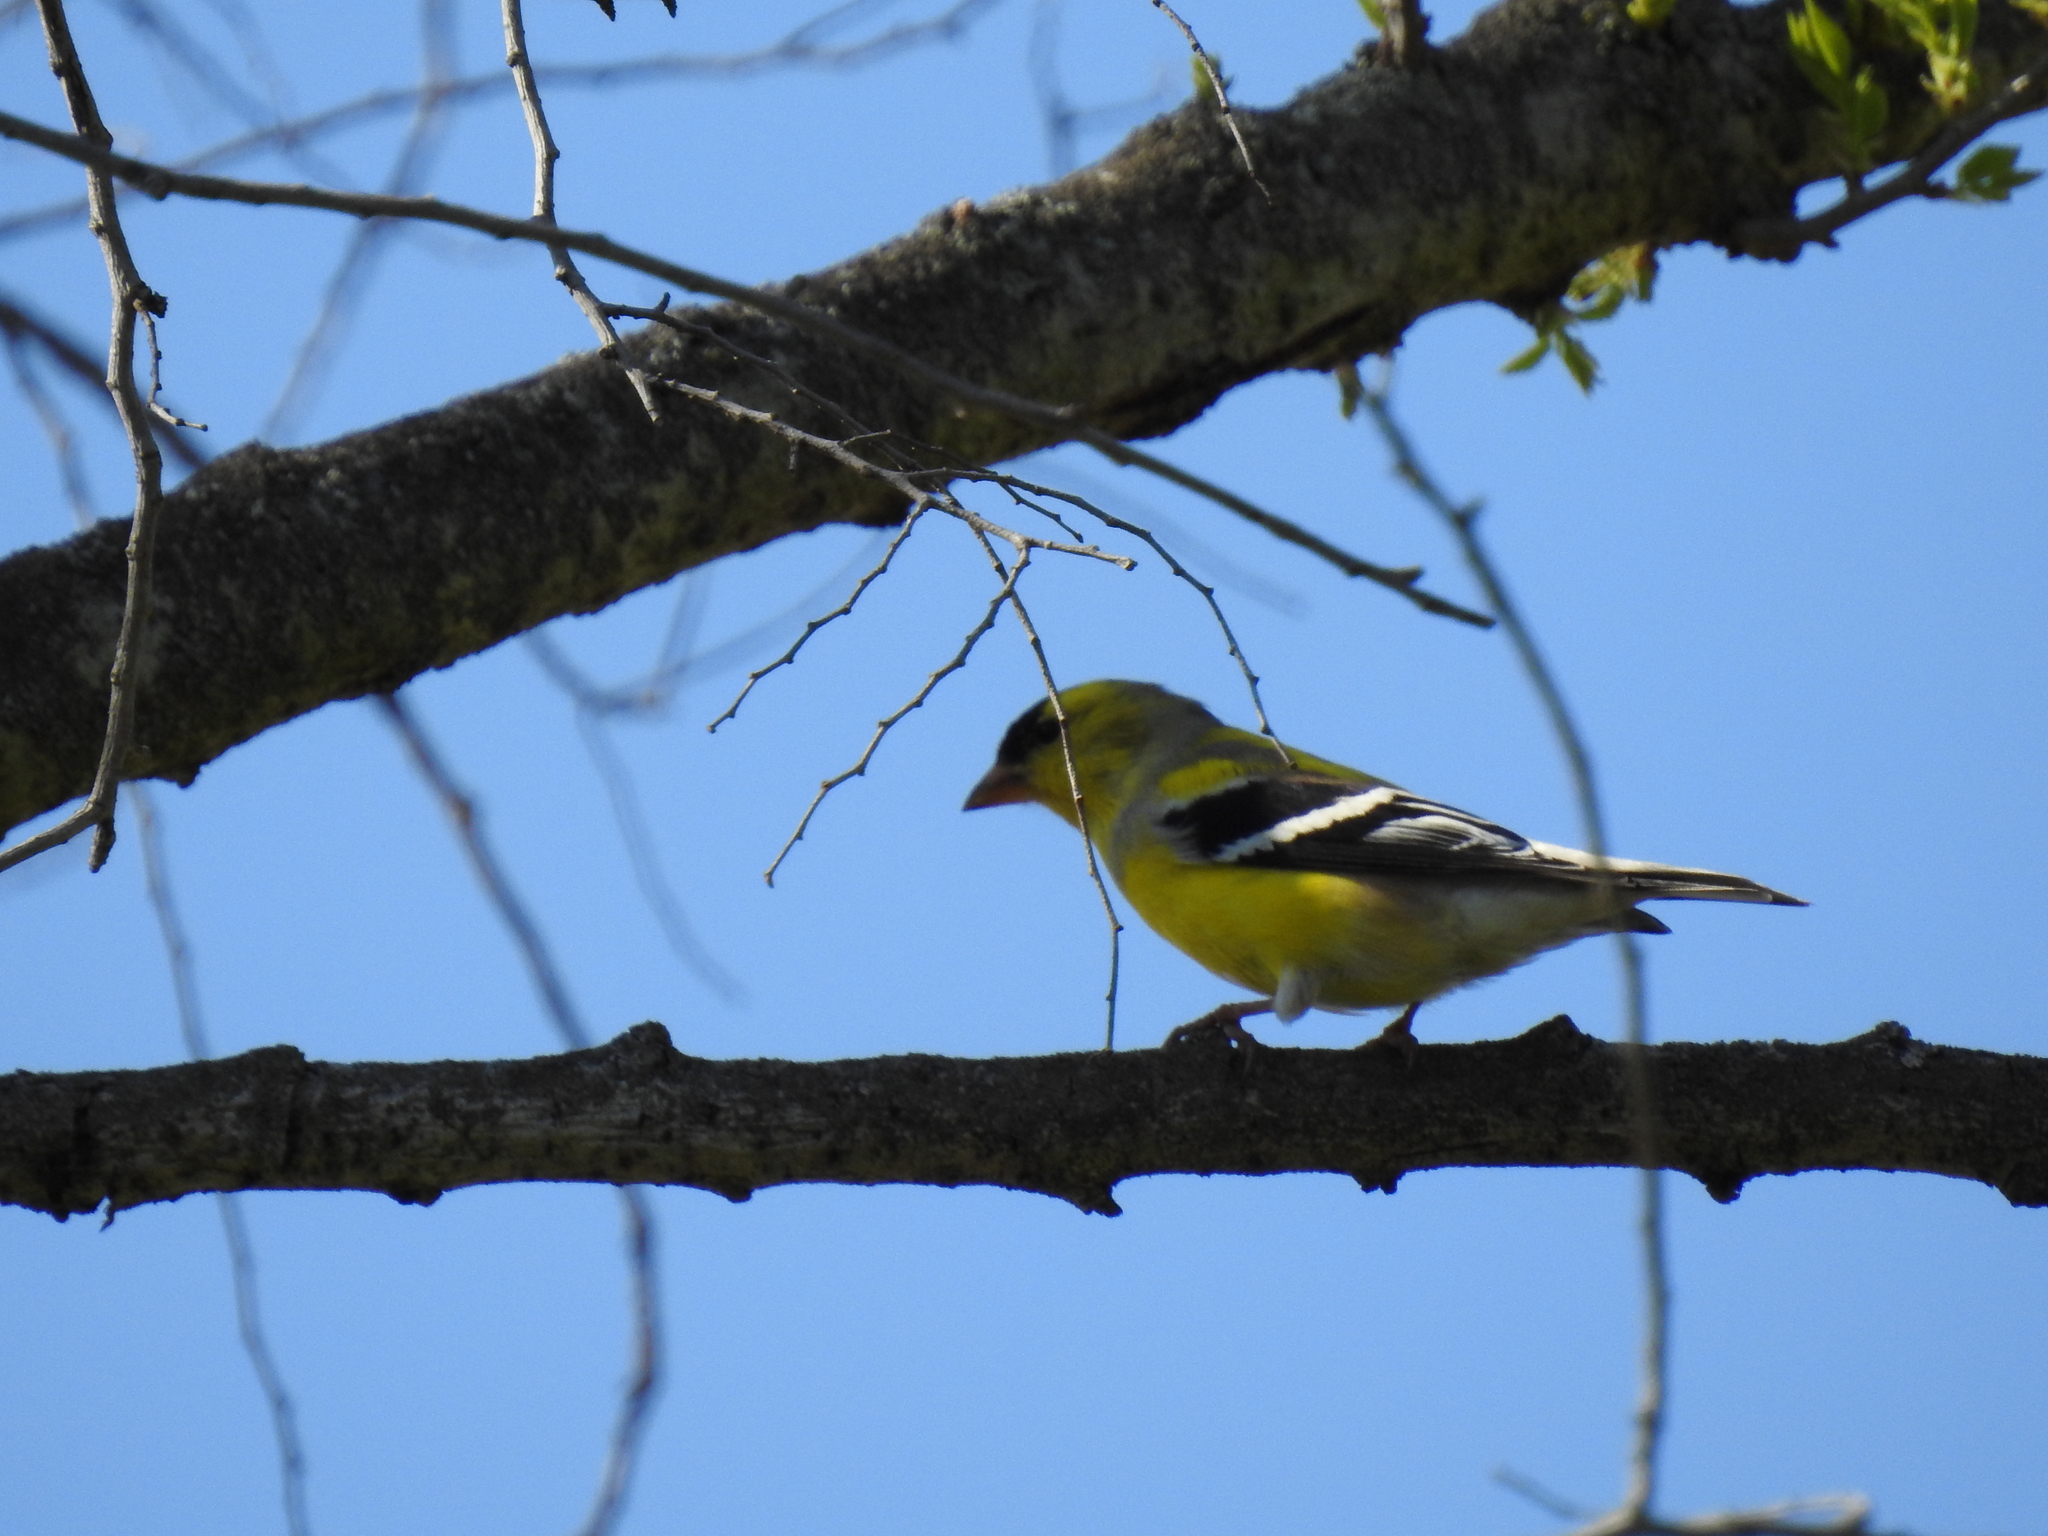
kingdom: Animalia
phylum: Chordata
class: Aves
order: Passeriformes
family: Fringillidae
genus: Spinus
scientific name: Spinus tristis
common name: American goldfinch
